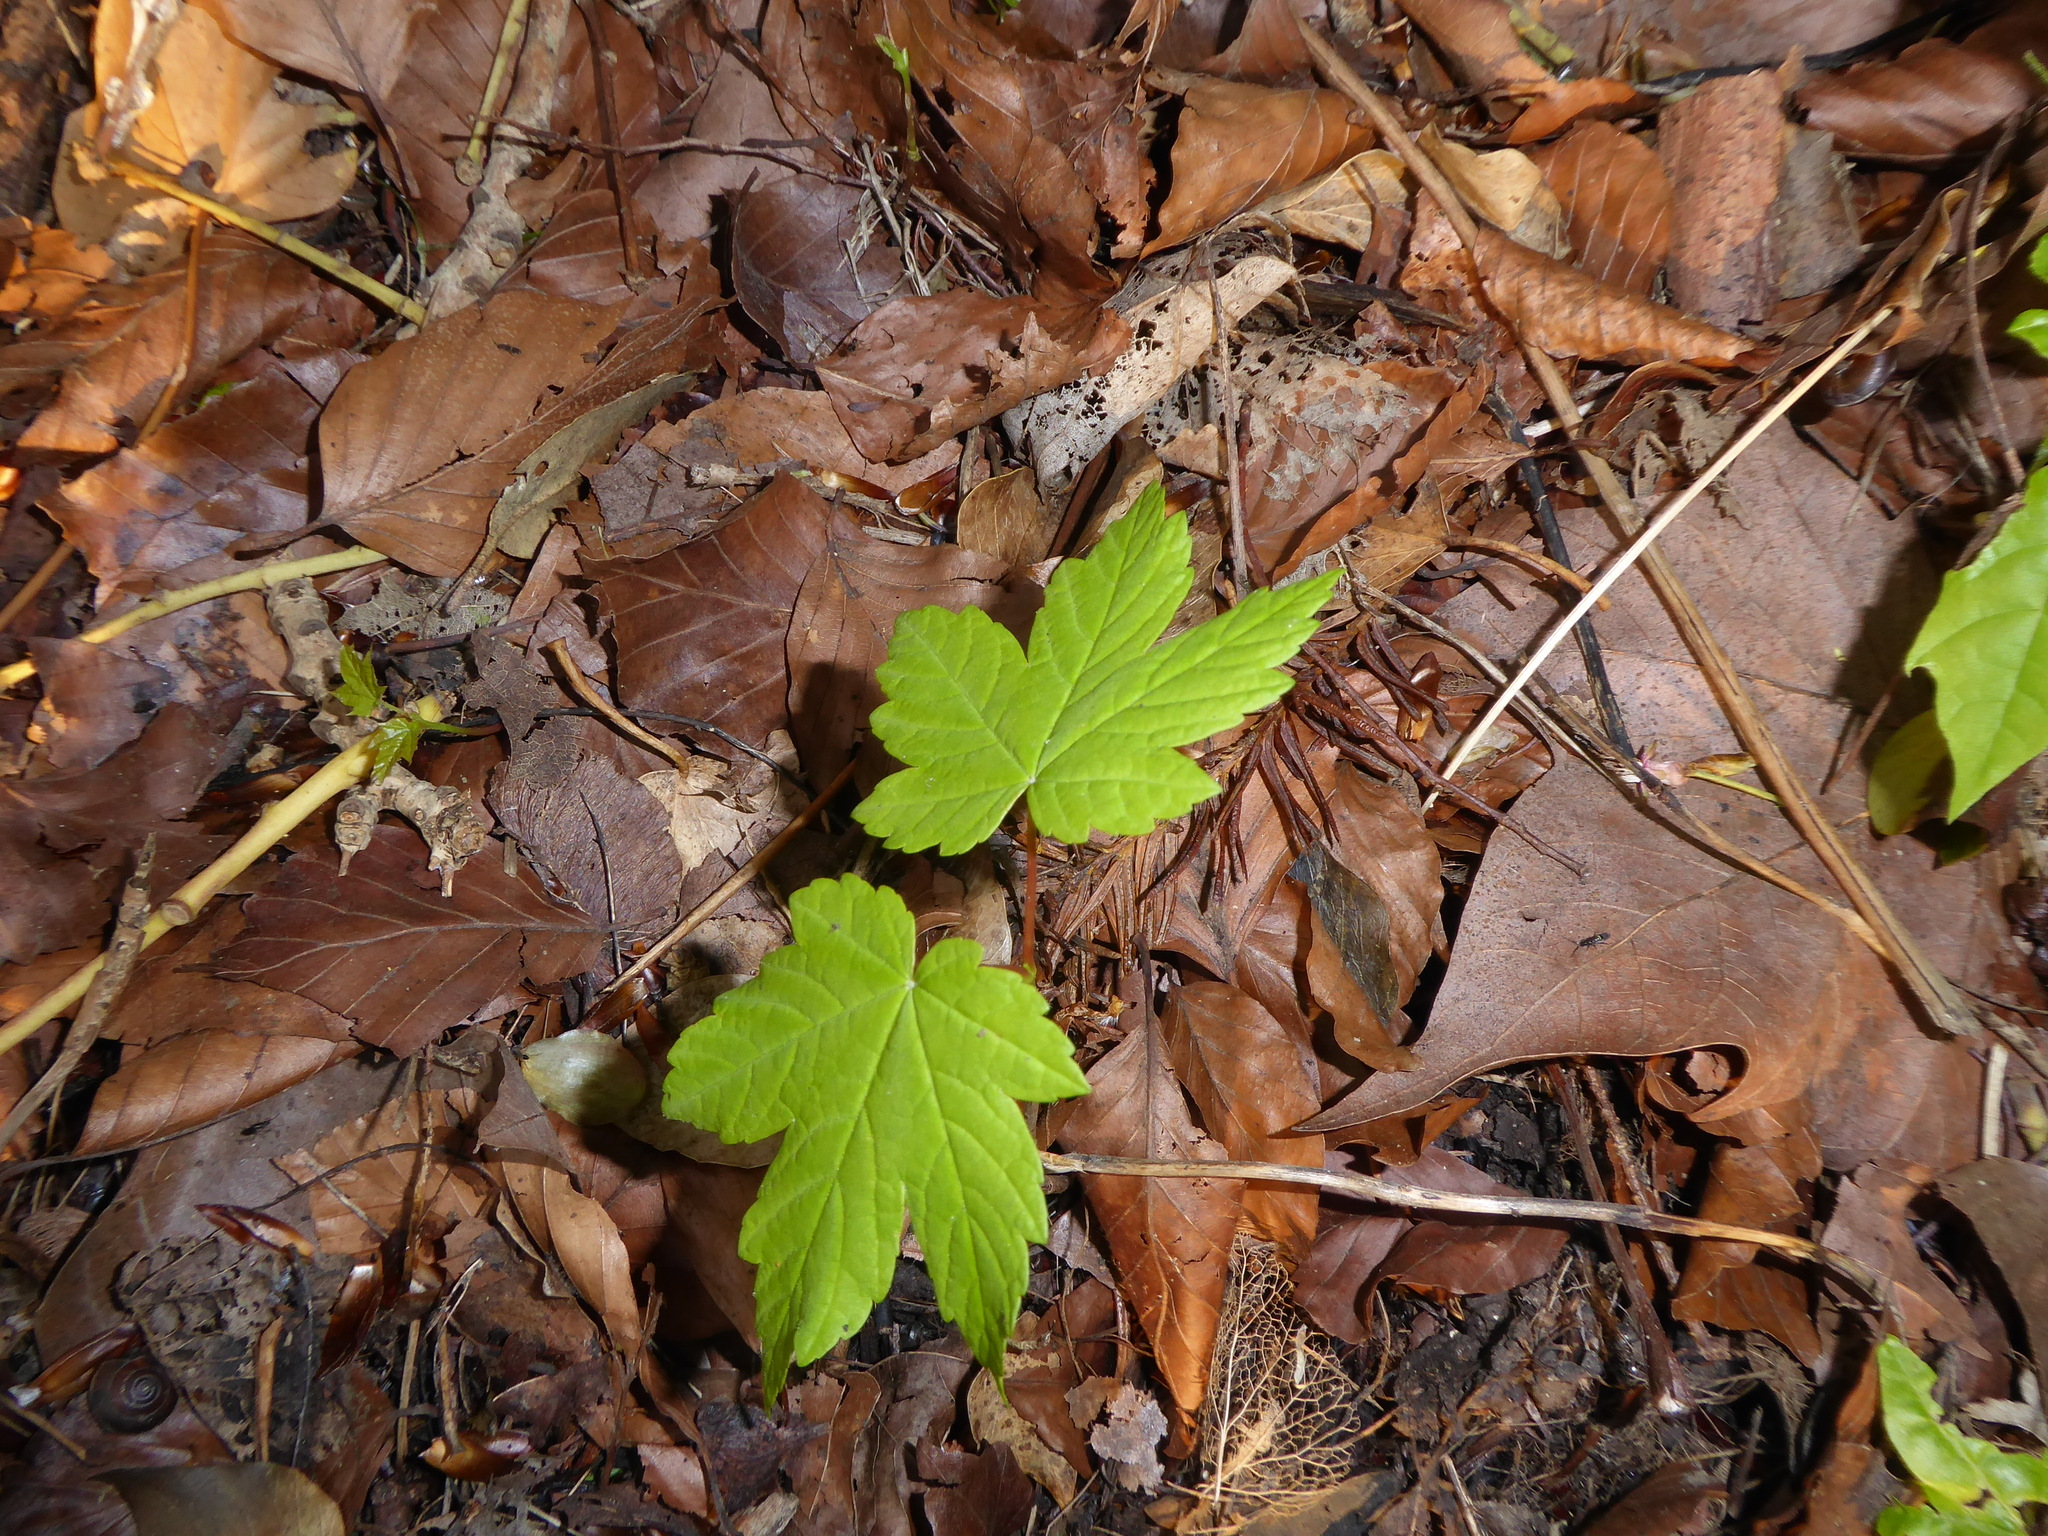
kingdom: Plantae
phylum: Tracheophyta
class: Magnoliopsida
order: Sapindales
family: Sapindaceae
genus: Acer
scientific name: Acer pseudoplatanus
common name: Sycamore
